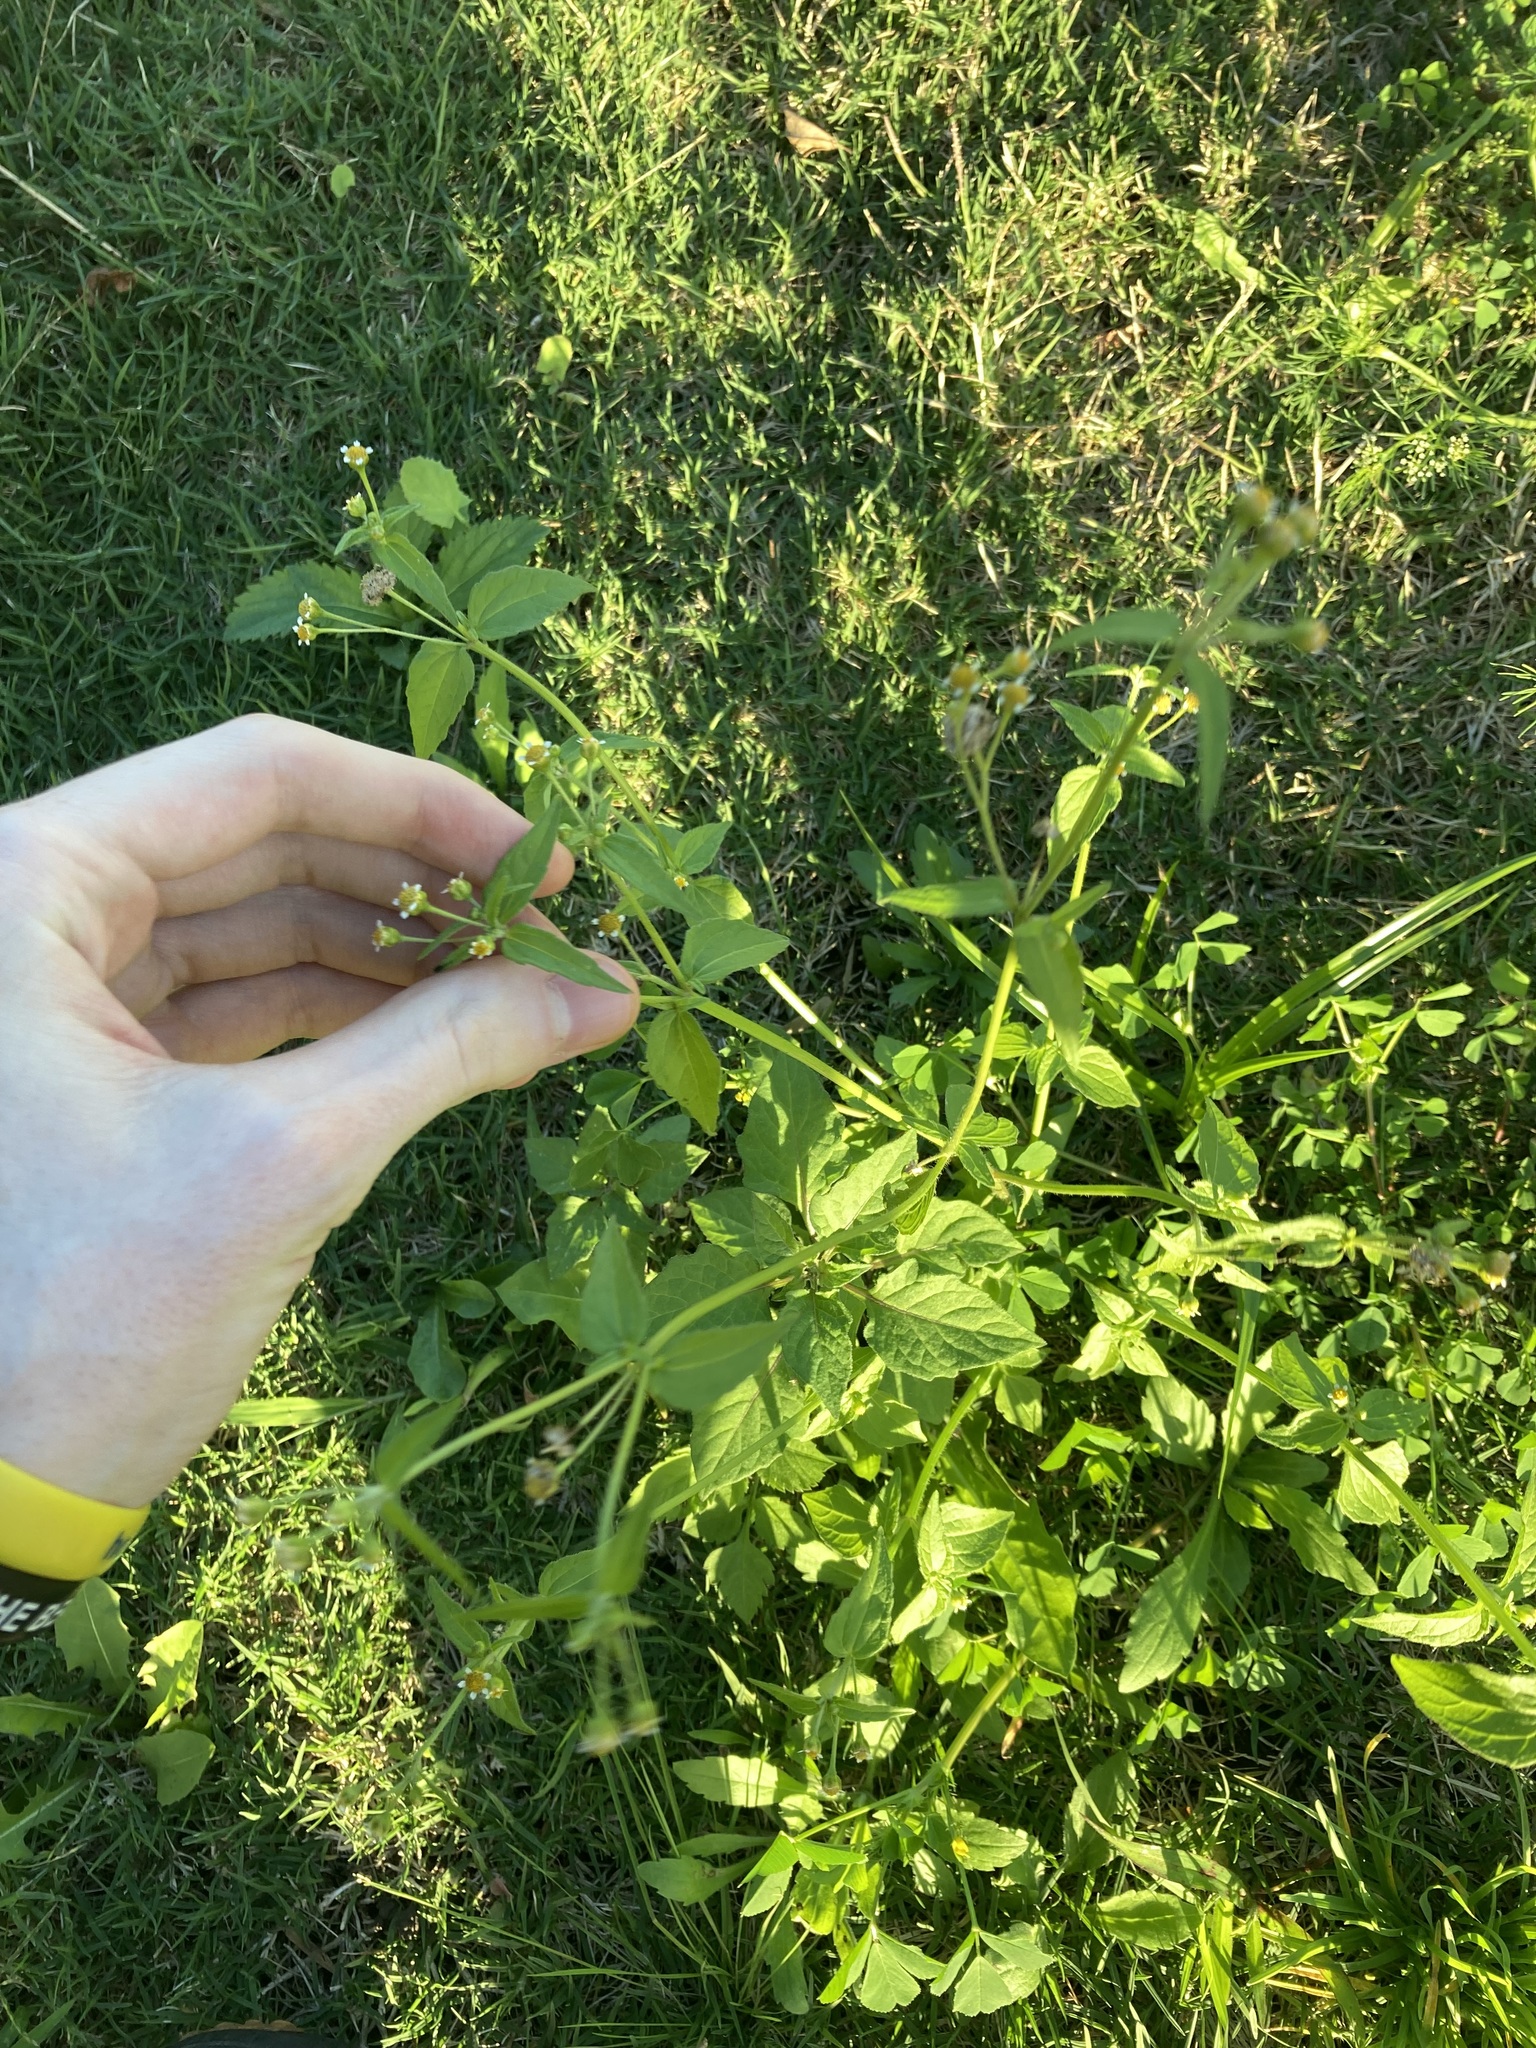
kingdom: Plantae
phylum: Tracheophyta
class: Magnoliopsida
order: Asterales
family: Asteraceae
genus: Galinsoga
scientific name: Galinsoga parviflora
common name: Gallant soldier
